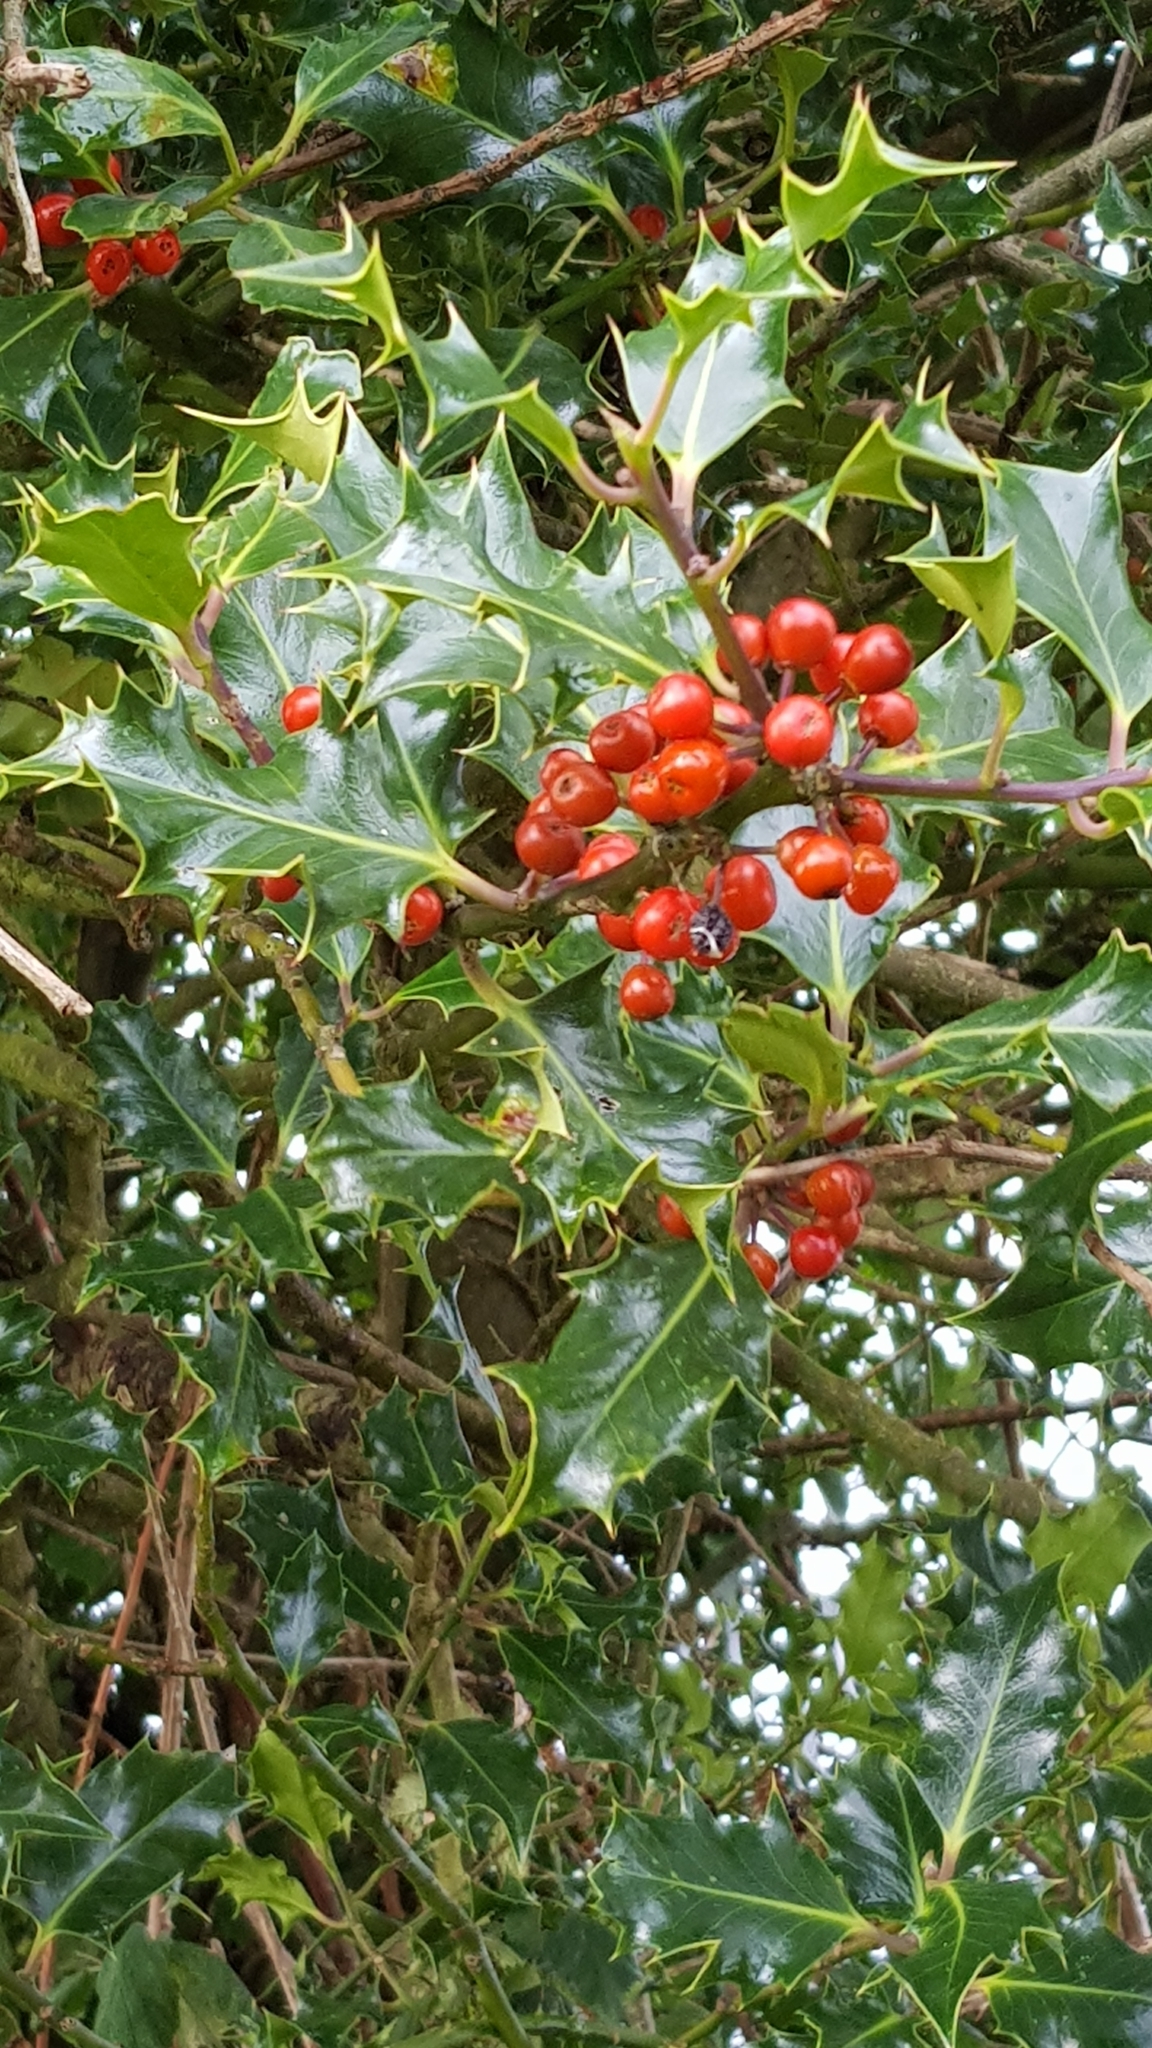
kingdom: Plantae
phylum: Tracheophyta
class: Magnoliopsida
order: Aquifoliales
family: Aquifoliaceae
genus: Ilex
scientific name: Ilex aquifolium
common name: English holly
